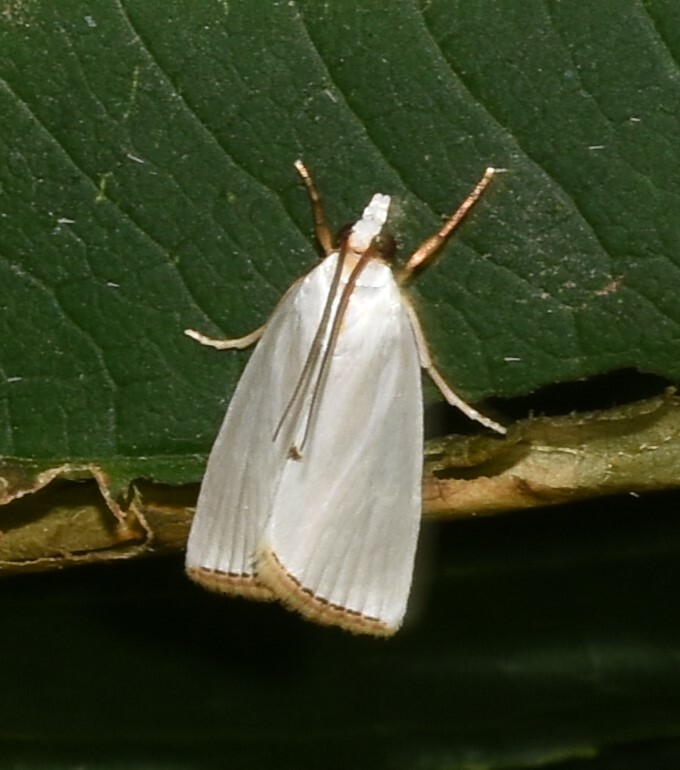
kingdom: Animalia
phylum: Arthropoda
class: Insecta
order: Lepidoptera
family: Crambidae
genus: Argyria
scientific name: Argyria nivalis
